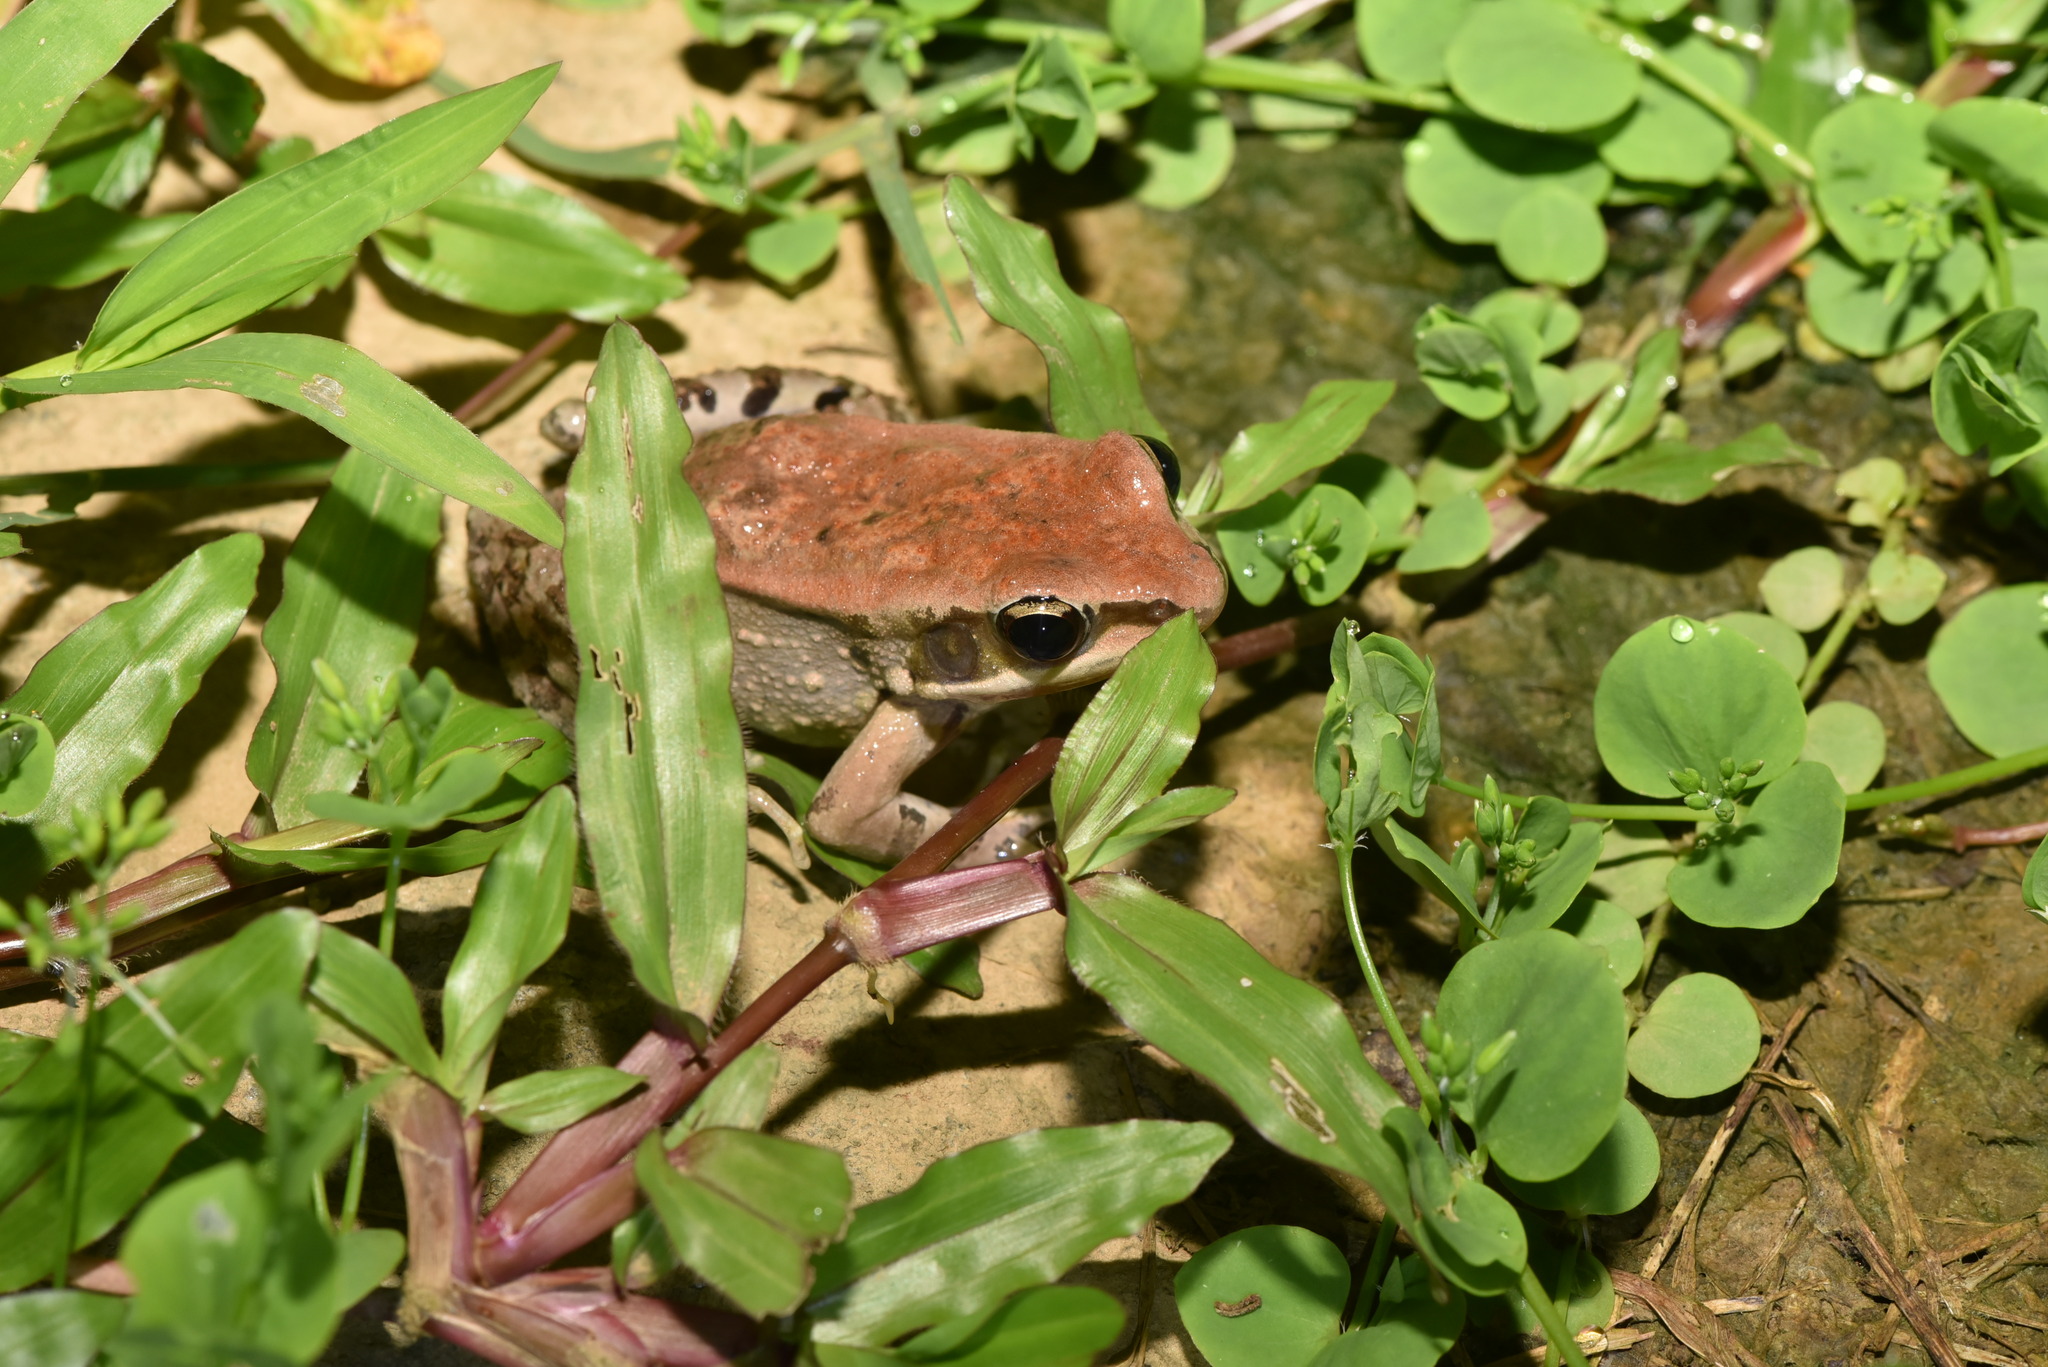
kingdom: Animalia
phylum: Chordata
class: Amphibia
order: Anura
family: Ranidae
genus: Hylarana
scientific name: Hylarana latouchii
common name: Broad-folded frog
